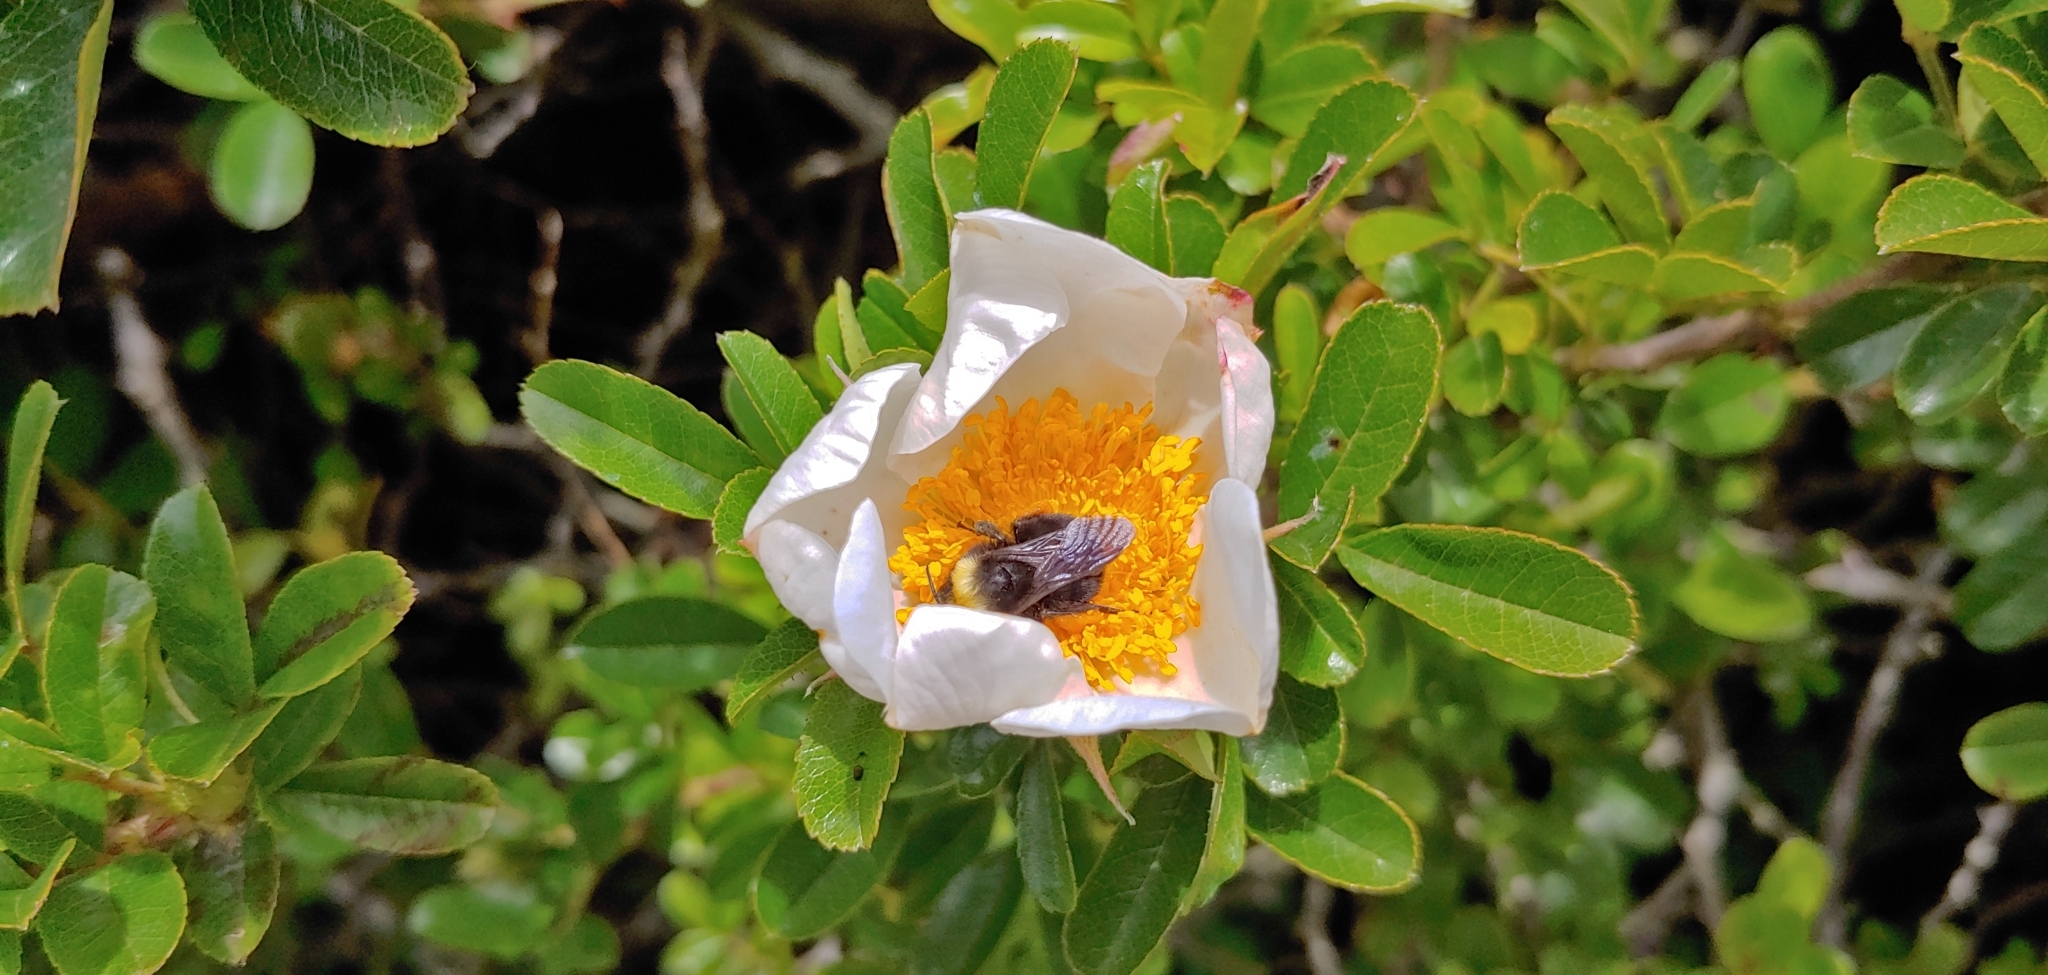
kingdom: Animalia
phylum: Arthropoda
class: Insecta
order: Hymenoptera
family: Apidae
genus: Pyrobombus
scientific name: Pyrobombus
